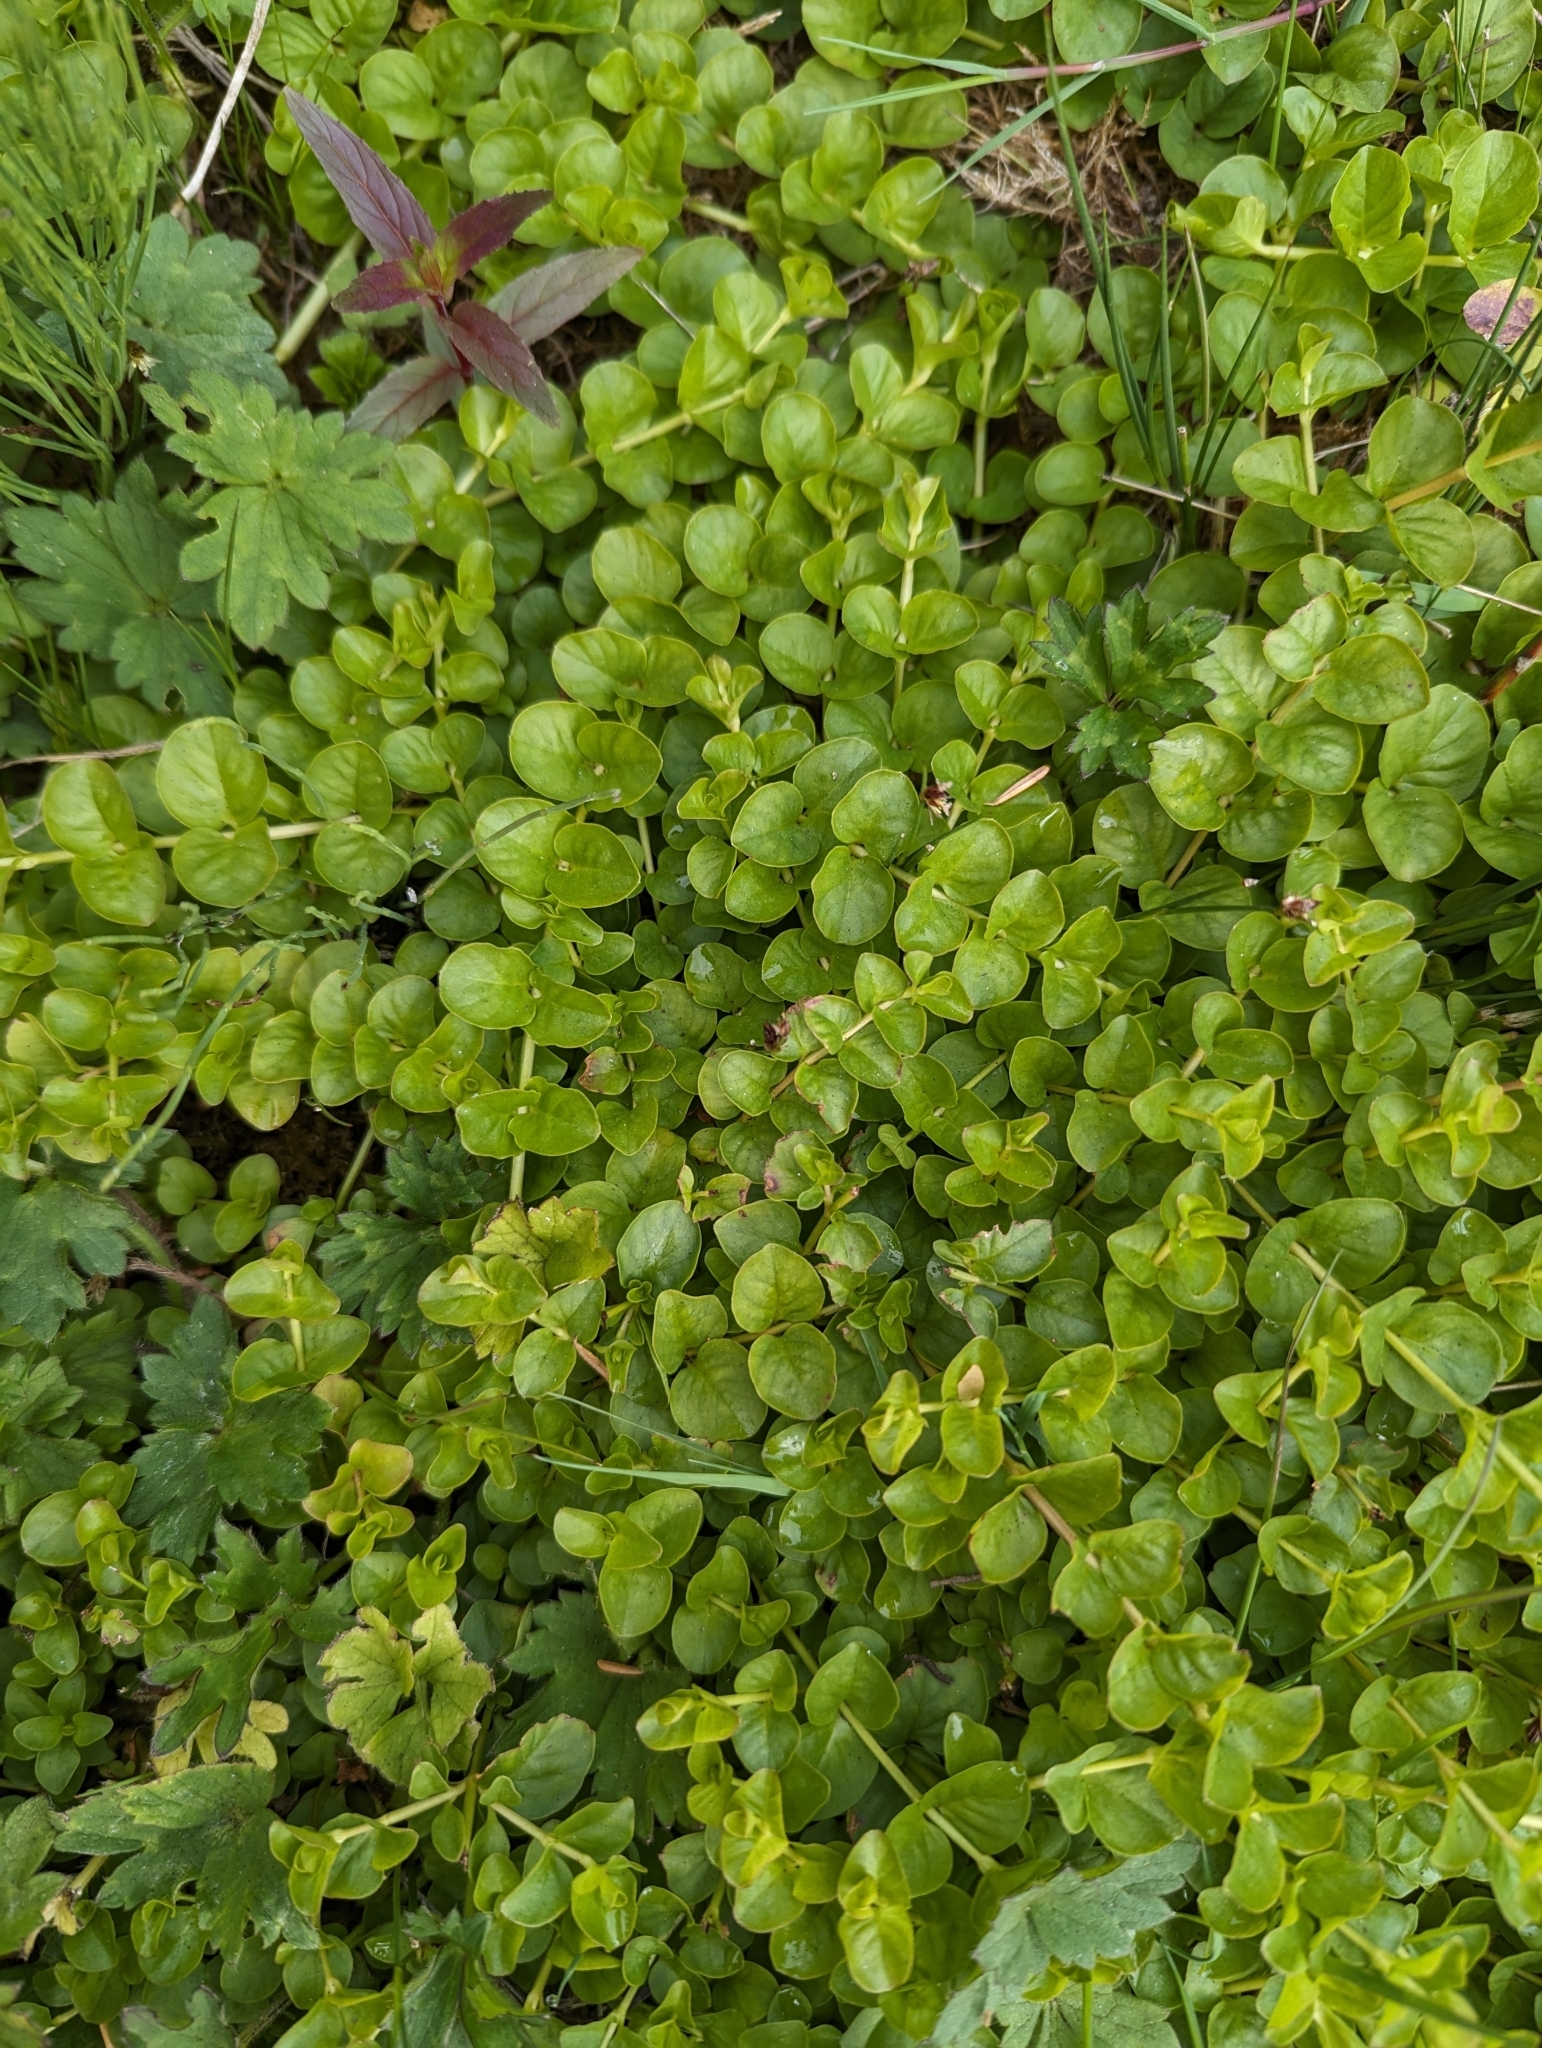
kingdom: Plantae
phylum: Tracheophyta
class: Magnoliopsida
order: Ericales
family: Primulaceae
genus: Lysimachia
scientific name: Lysimachia nummularia
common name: Moneywort
